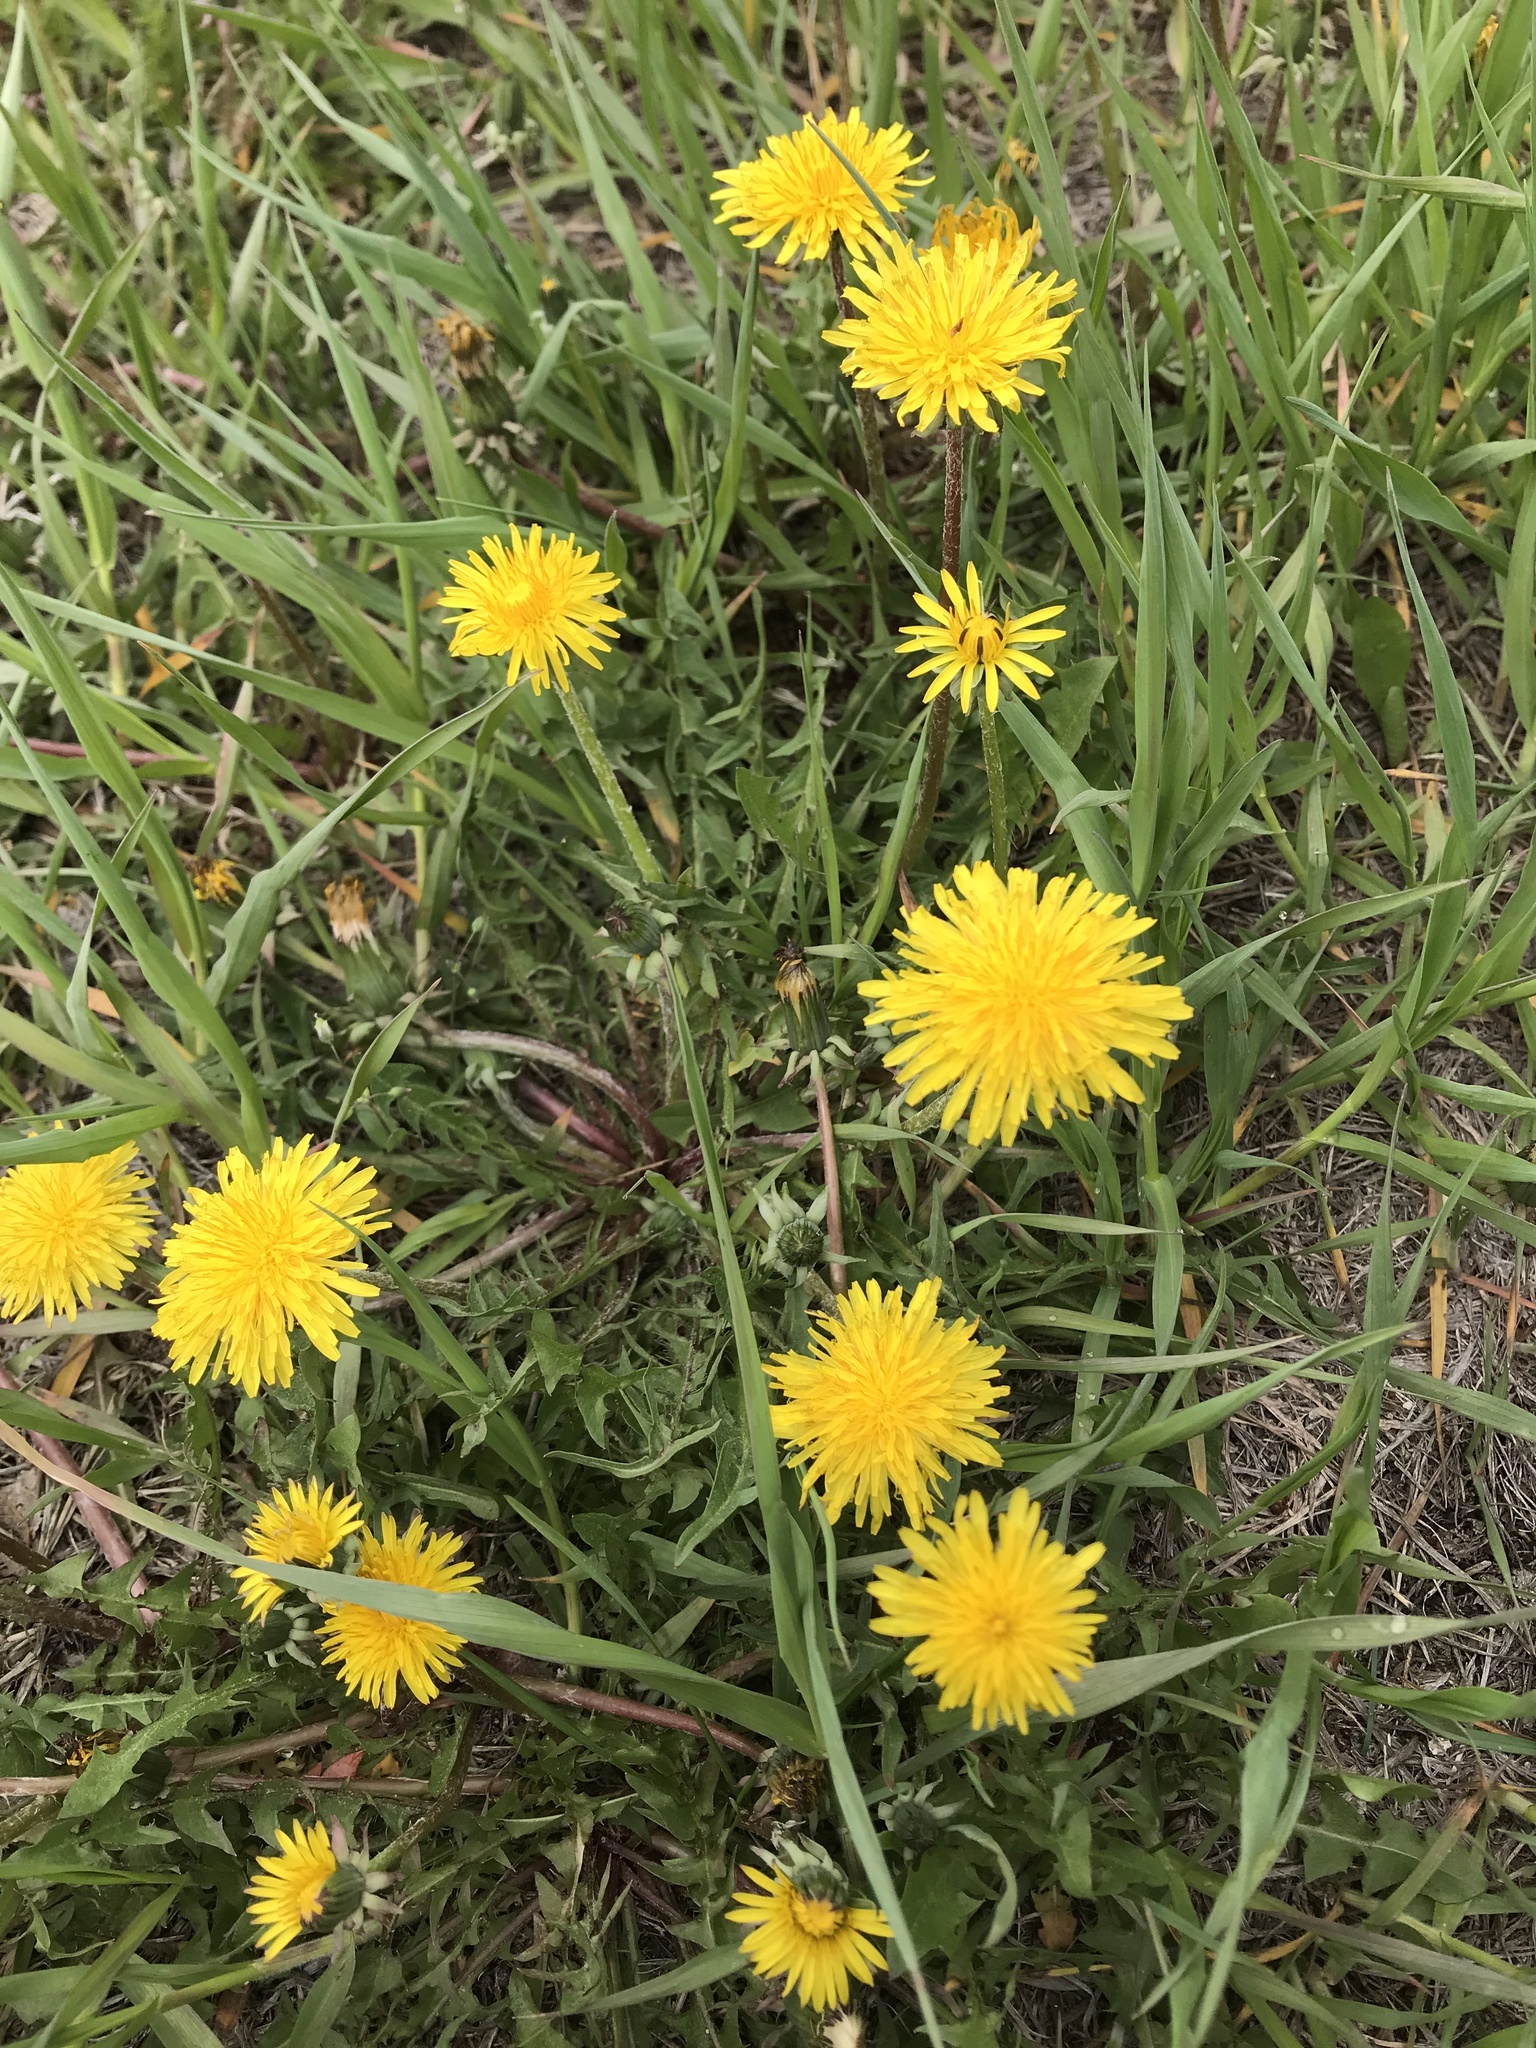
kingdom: Plantae
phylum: Tracheophyta
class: Magnoliopsida
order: Asterales
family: Asteraceae
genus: Taraxacum
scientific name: Taraxacum
